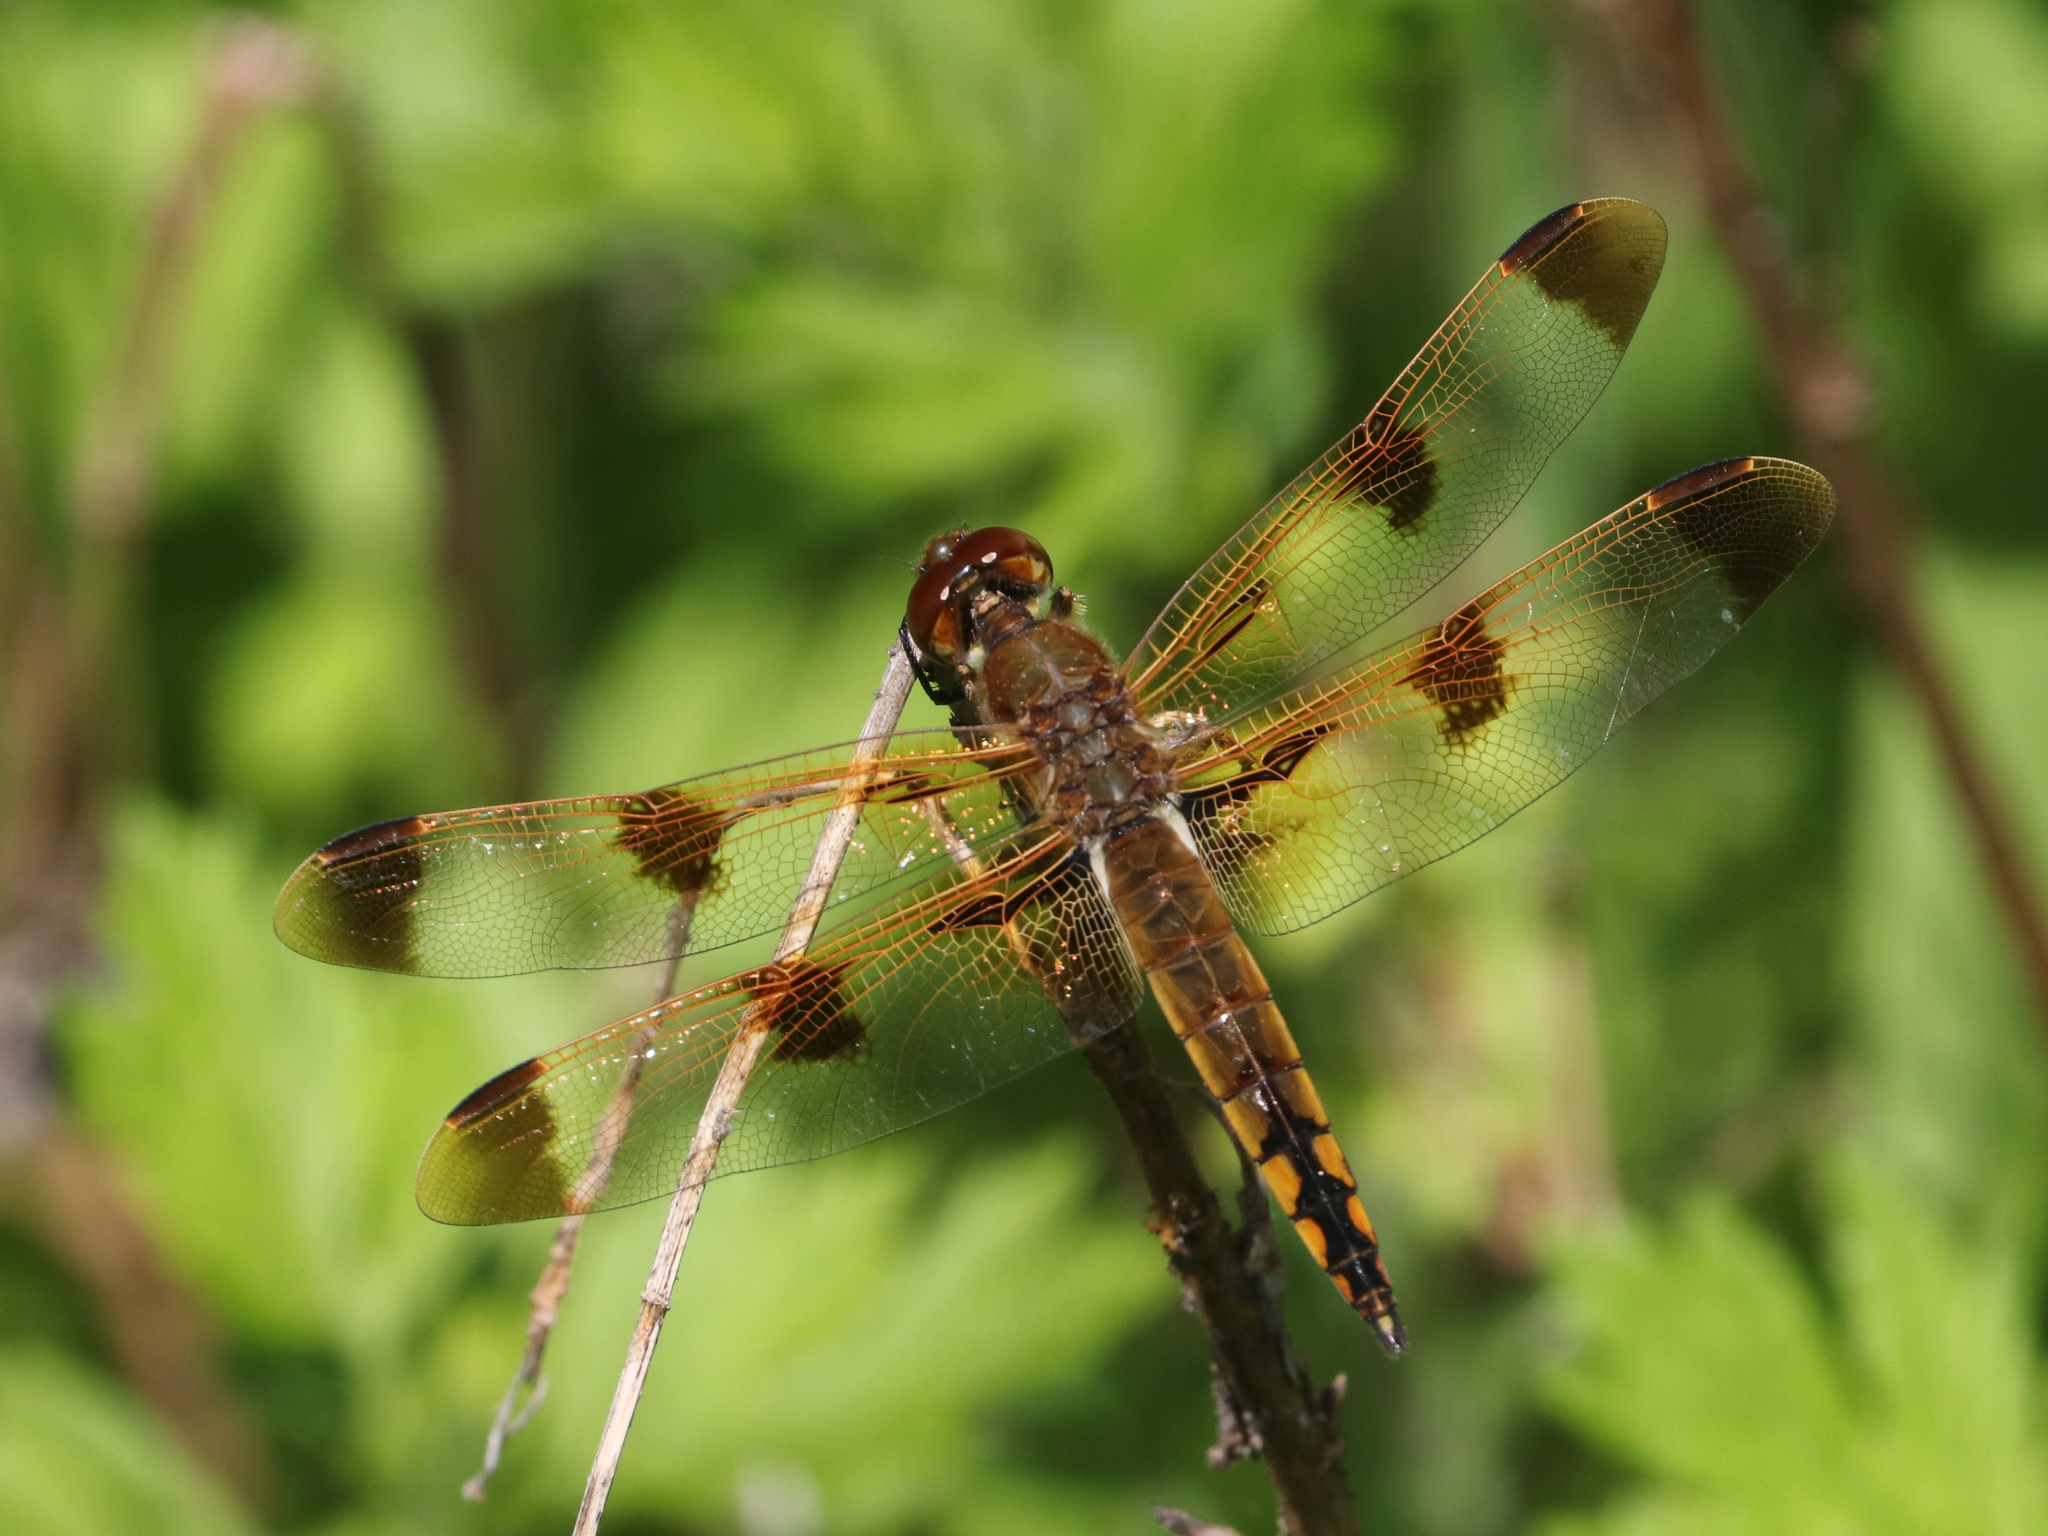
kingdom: Animalia
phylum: Arthropoda
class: Insecta
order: Odonata
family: Libellulidae
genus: Libellula
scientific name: Libellula semifasciata
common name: Painted skimmer
